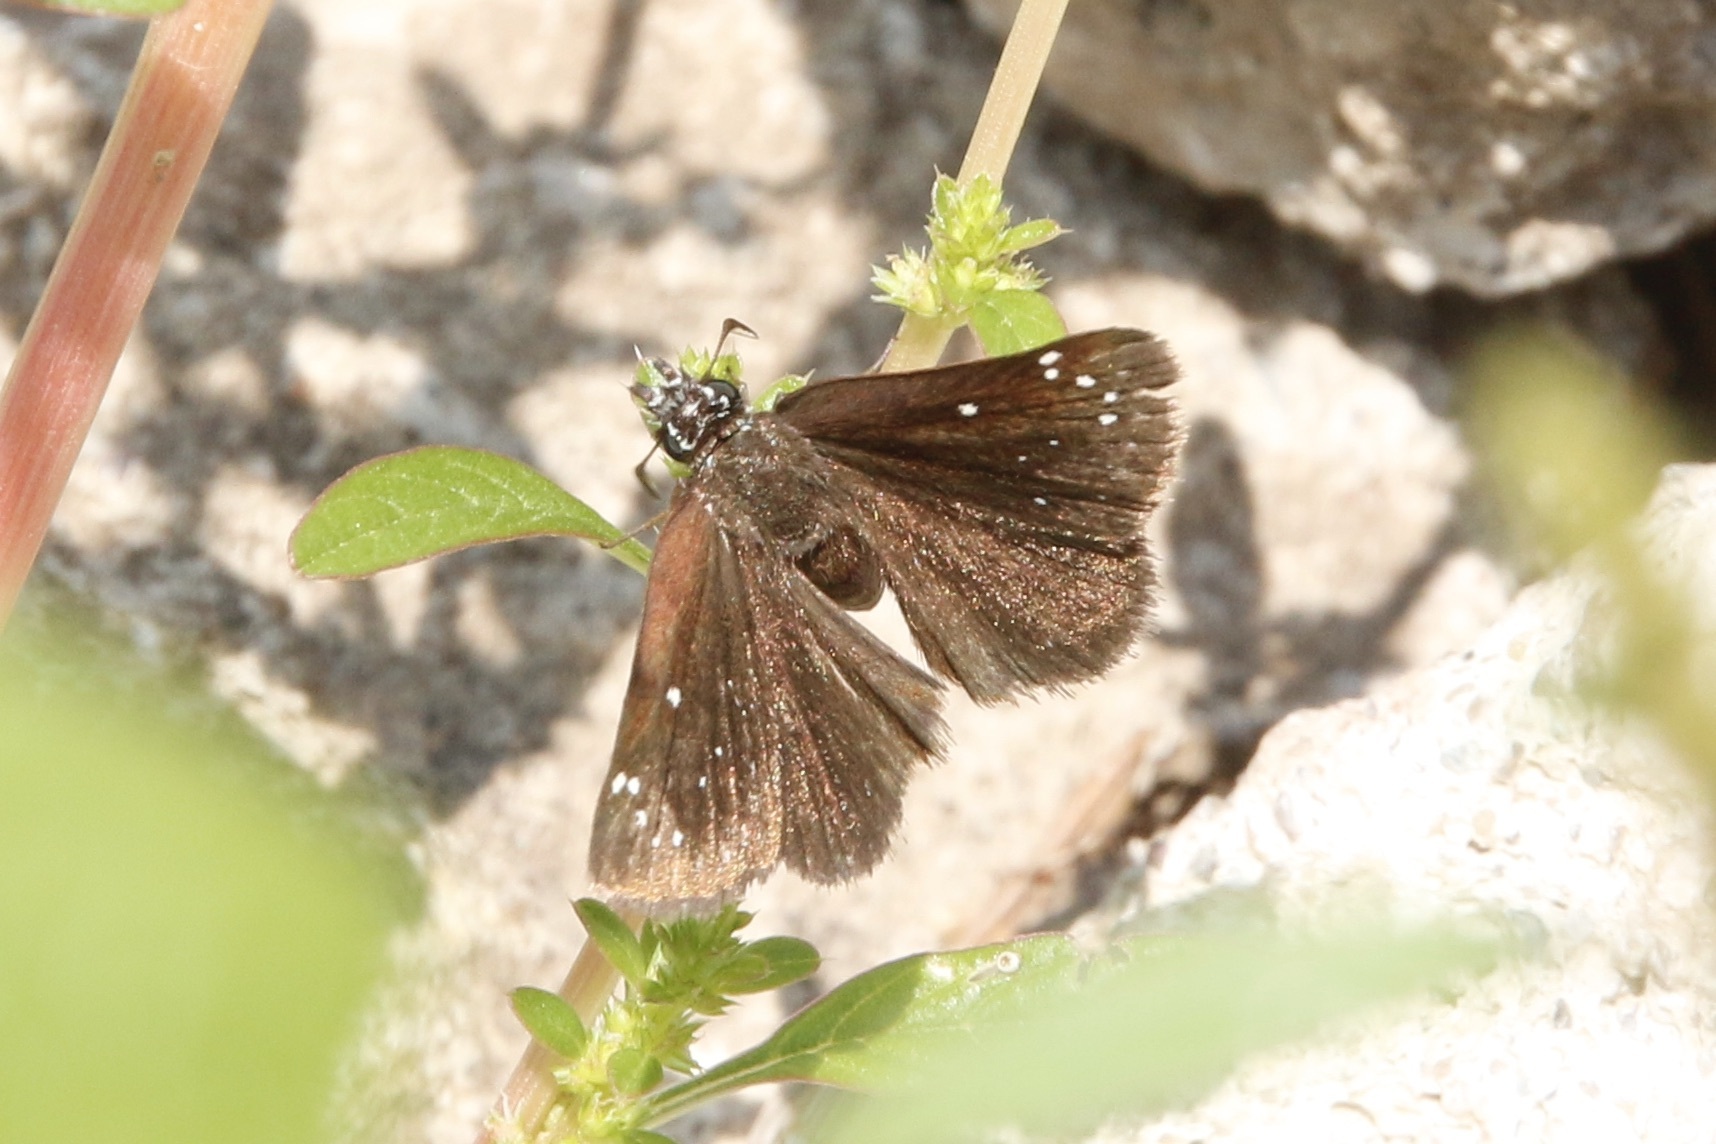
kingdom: Animalia
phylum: Arthropoda
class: Insecta
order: Lepidoptera
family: Hesperiidae
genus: Pholisora
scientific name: Pholisora catullus
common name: Common sootywing
